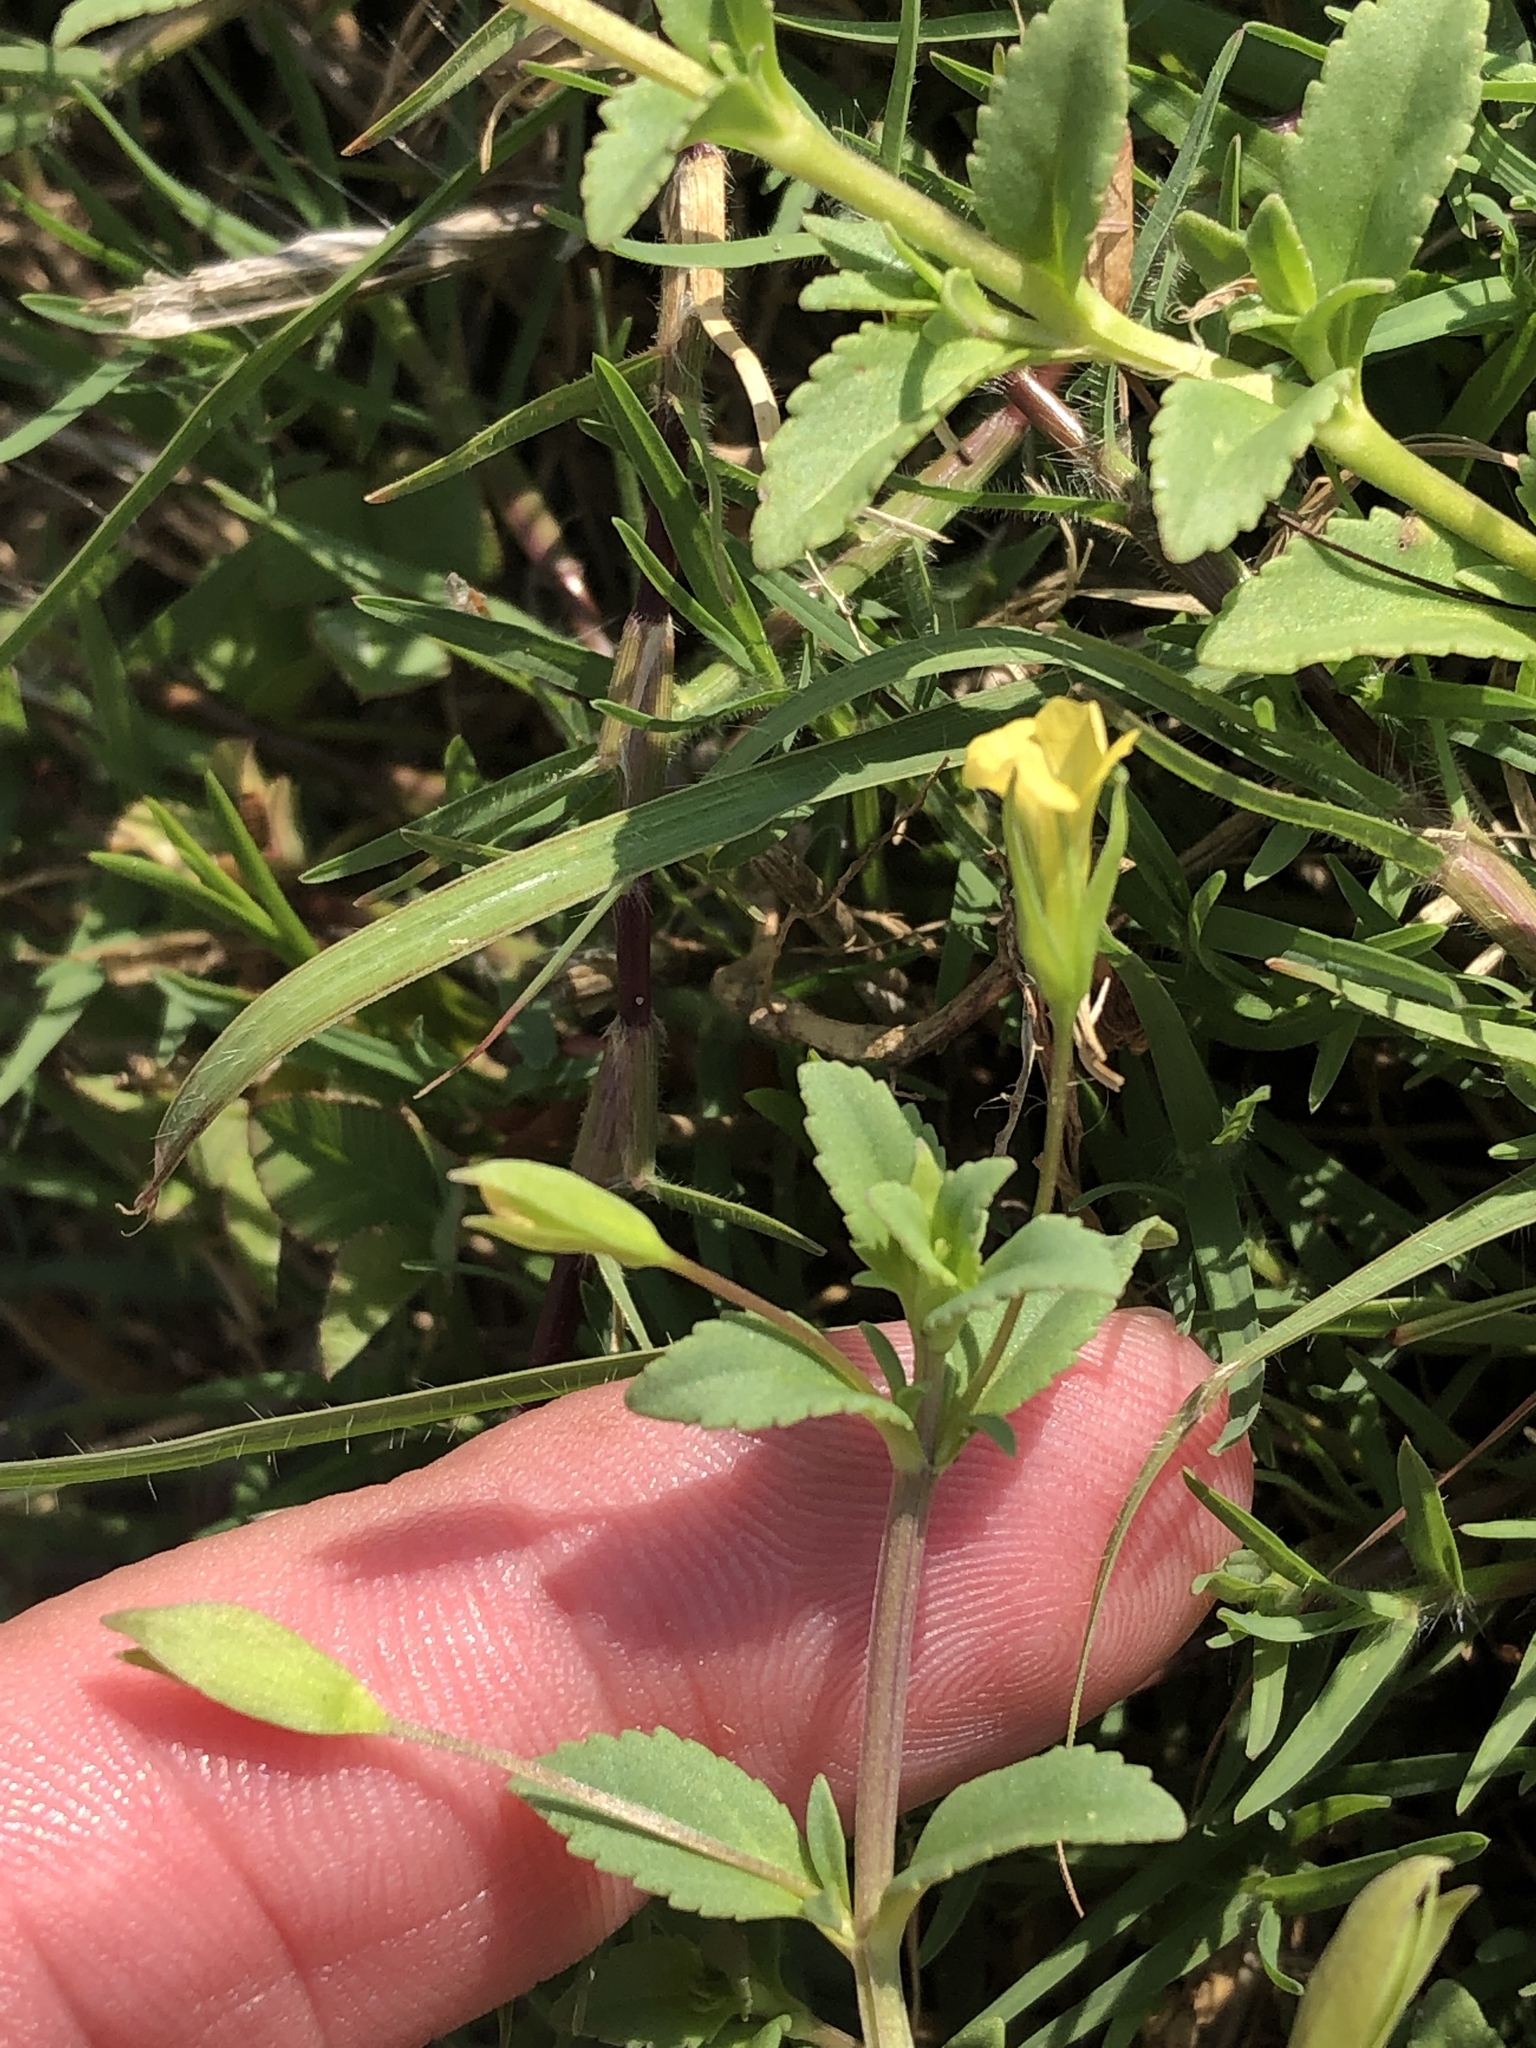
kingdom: Plantae
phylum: Tracheophyta
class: Magnoliopsida
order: Lamiales
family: Plantaginaceae
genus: Mecardonia
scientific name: Mecardonia procumbens
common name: Baby jump-up
